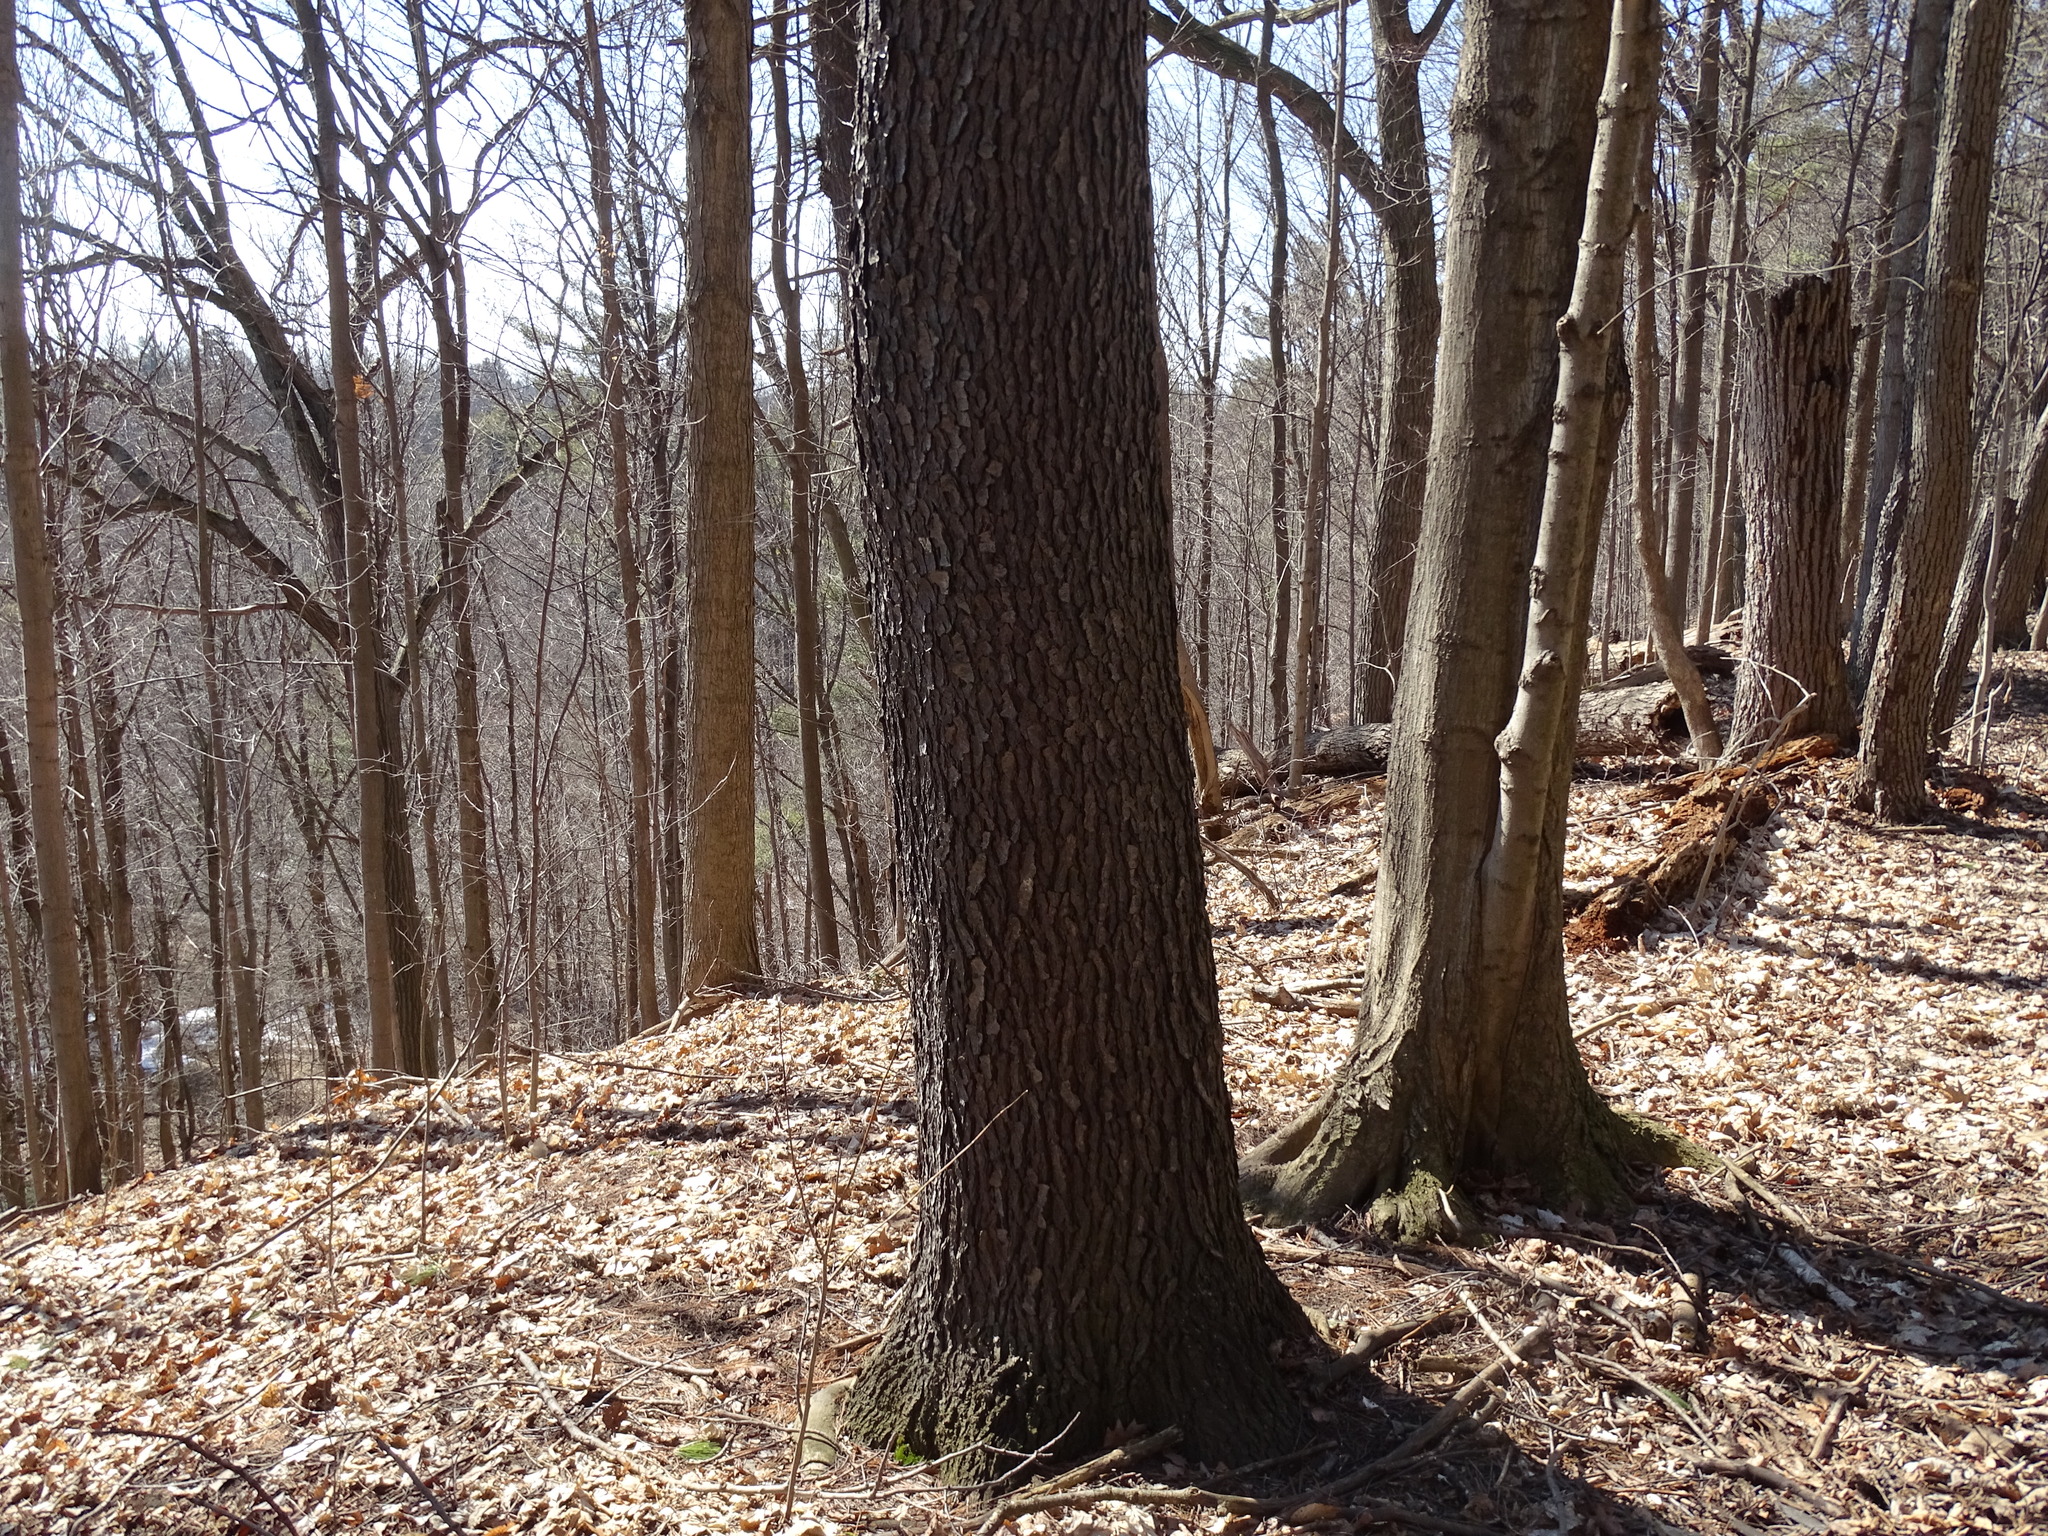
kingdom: Plantae
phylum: Tracheophyta
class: Magnoliopsida
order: Rosales
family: Rosaceae
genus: Prunus
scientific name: Prunus serotina
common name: Black cherry
